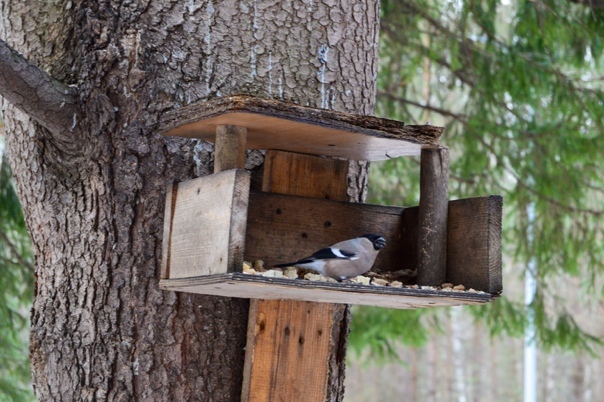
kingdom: Animalia
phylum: Chordata
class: Aves
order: Passeriformes
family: Fringillidae
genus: Pyrrhula
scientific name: Pyrrhula pyrrhula
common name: Eurasian bullfinch
